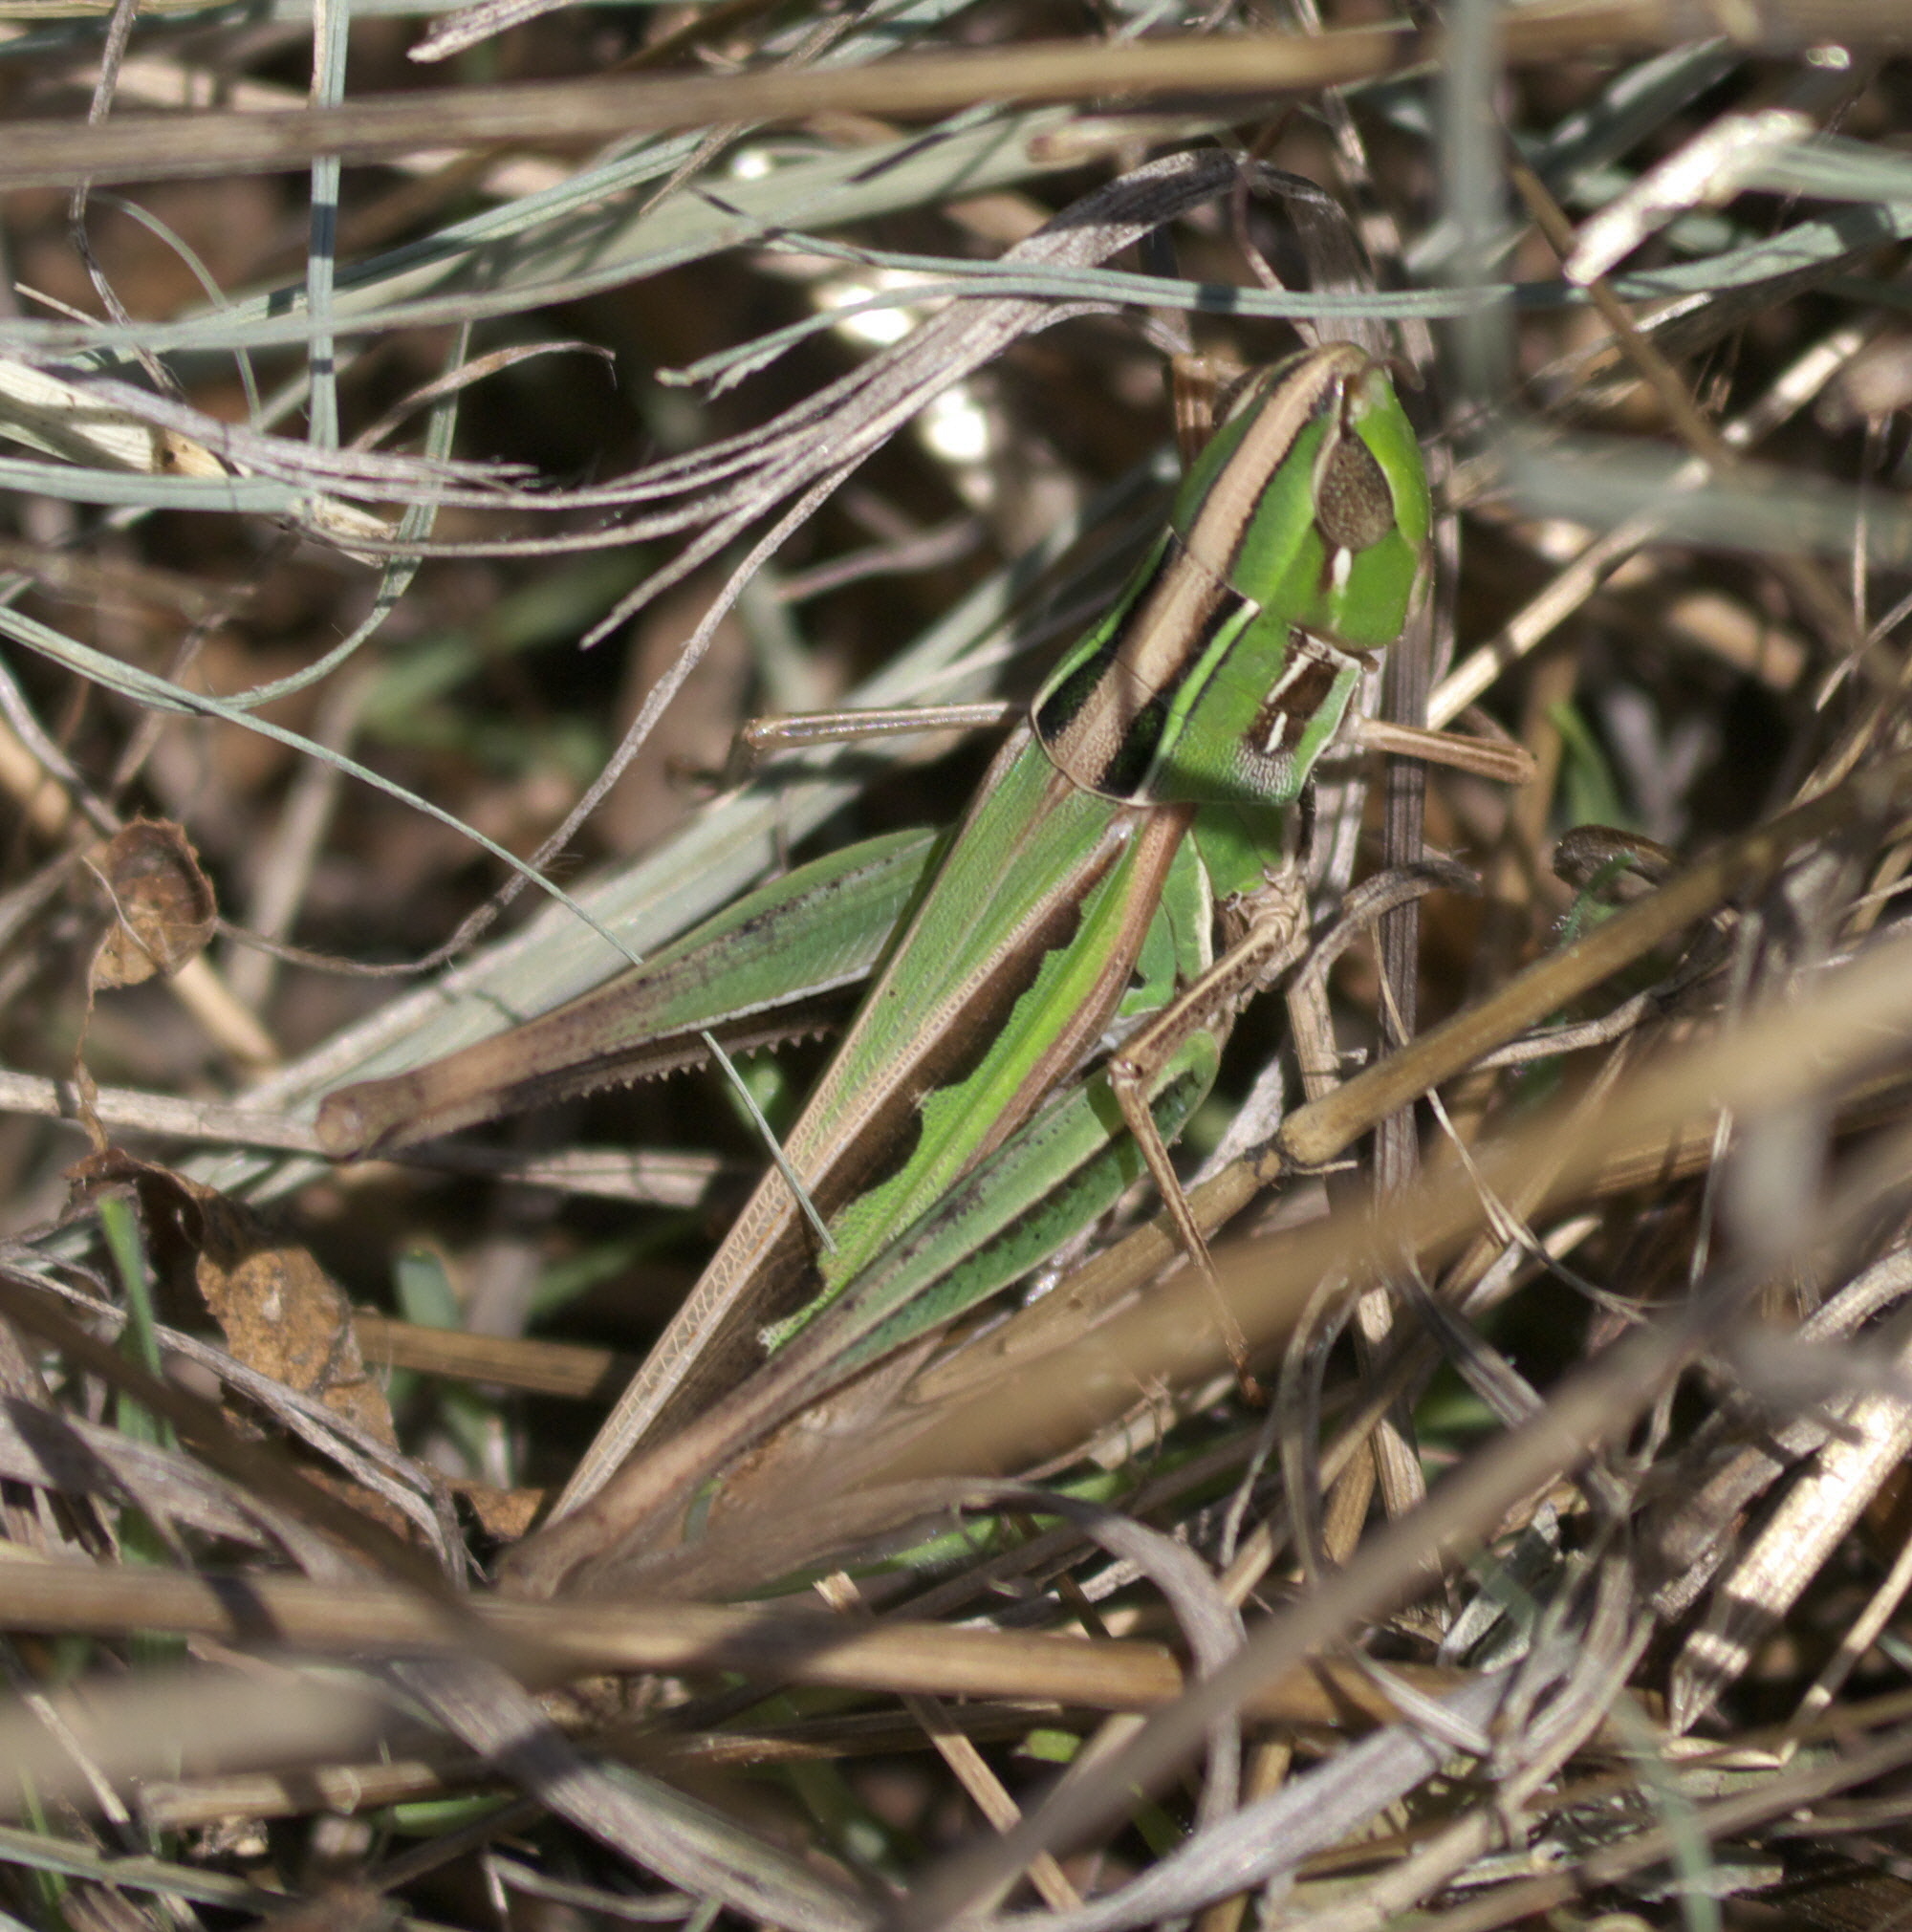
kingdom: Animalia
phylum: Arthropoda
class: Insecta
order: Orthoptera
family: Acrididae
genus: Syrbula
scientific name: Syrbula admirabilis
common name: Handsome grasshopper
